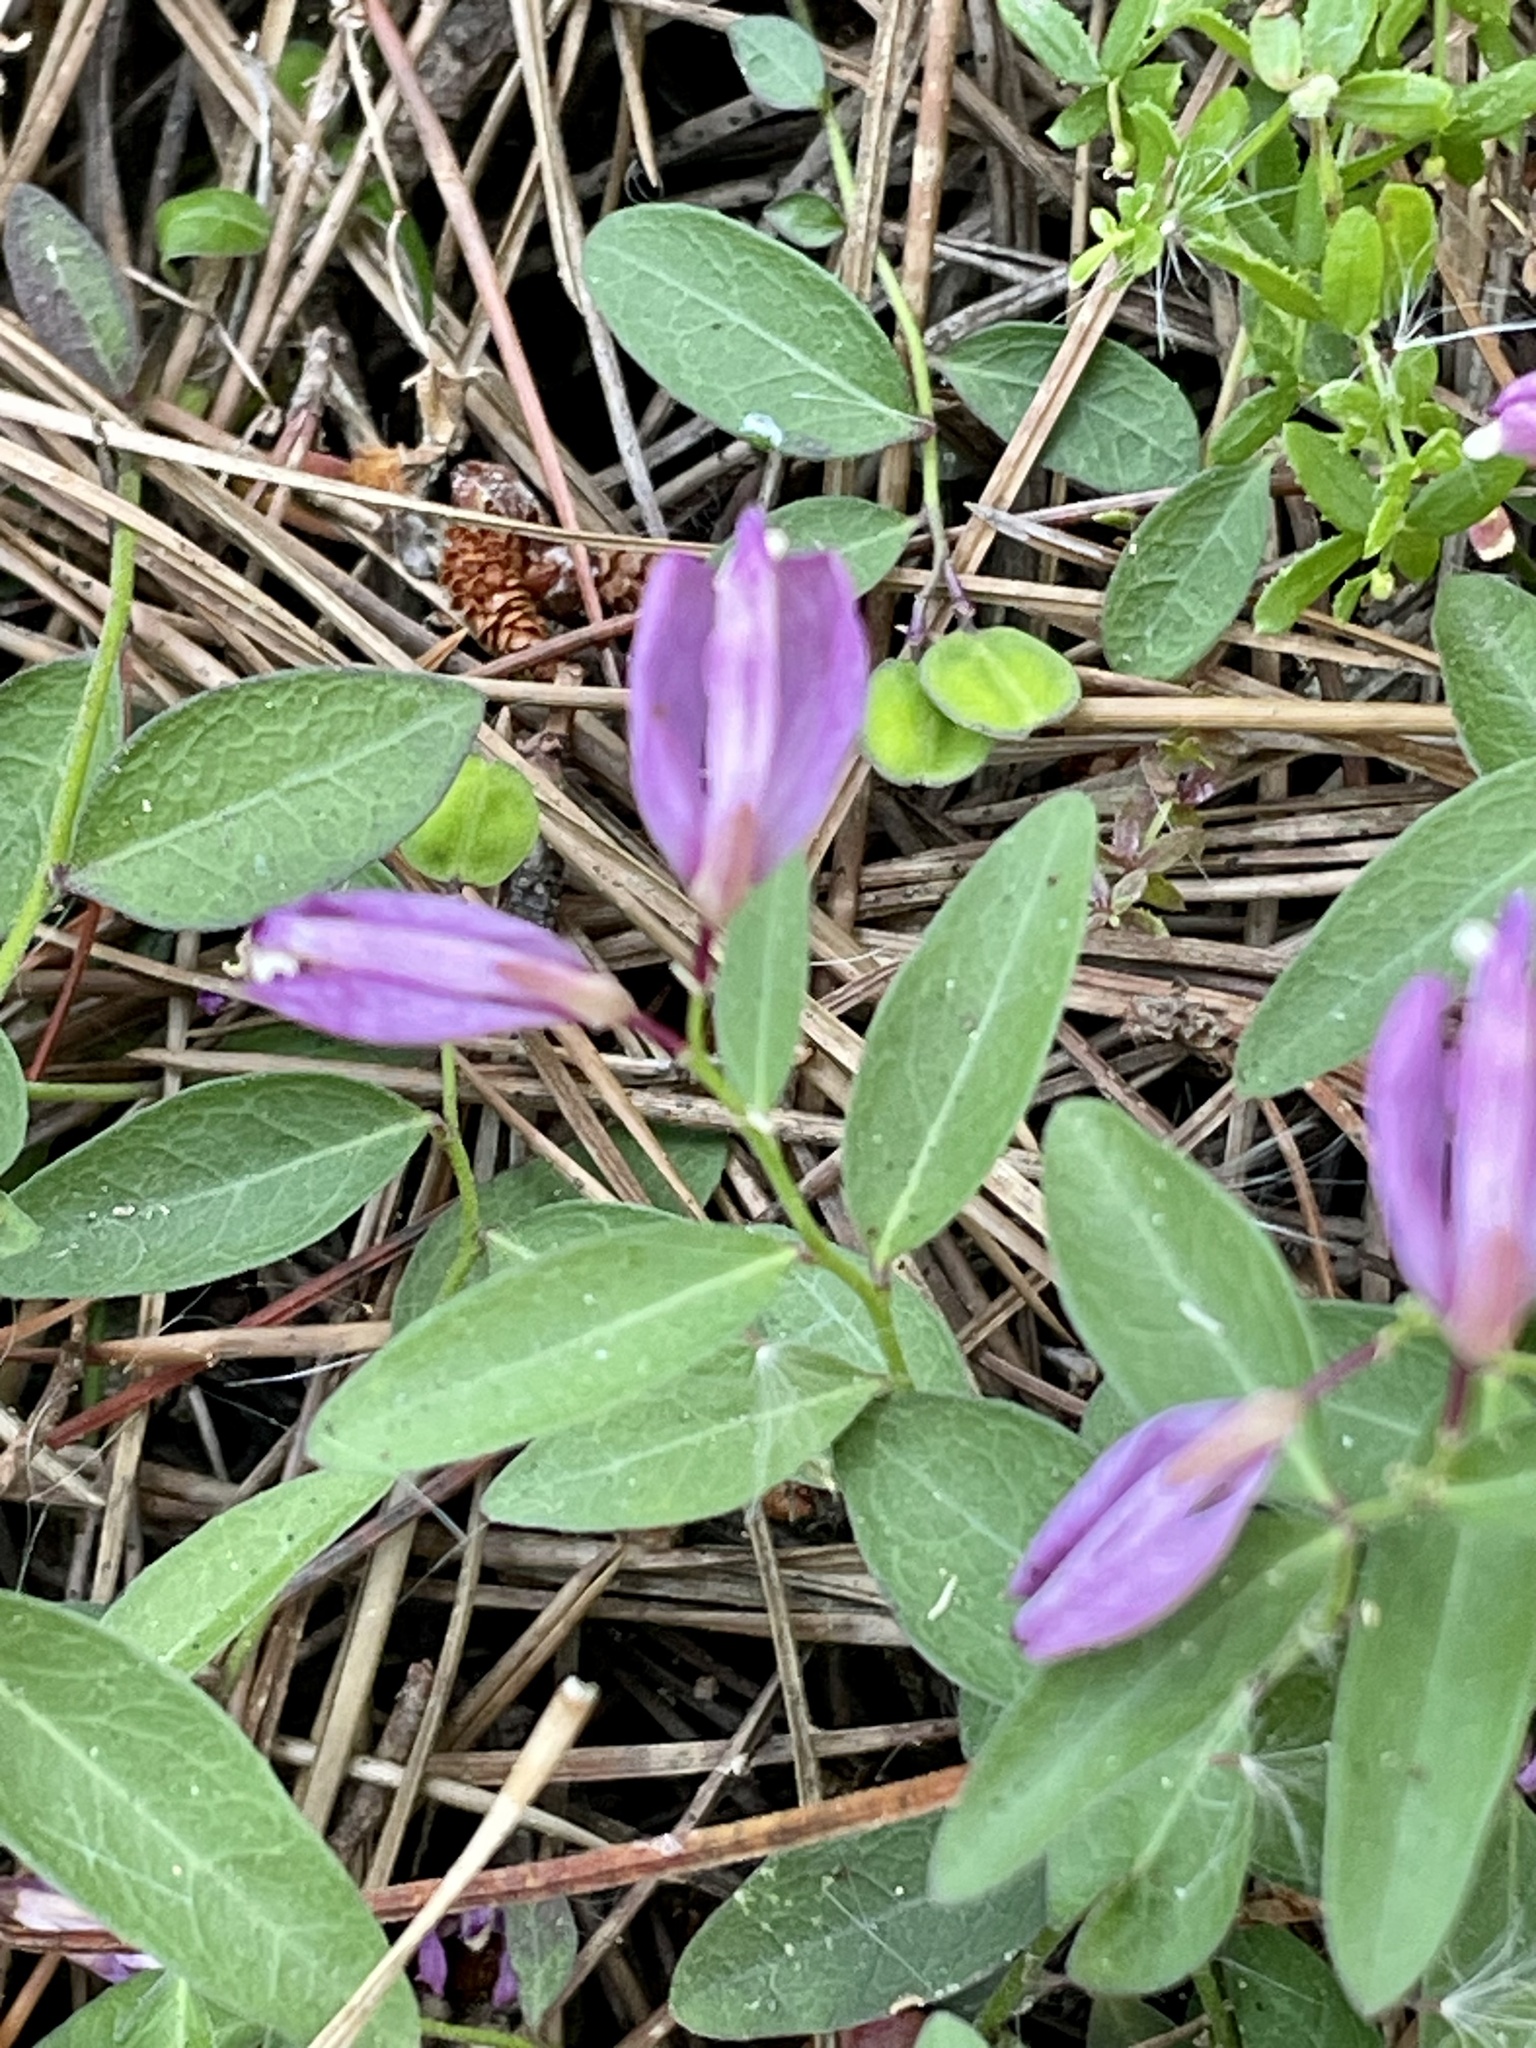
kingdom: Plantae
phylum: Tracheophyta
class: Magnoliopsida
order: Fabales
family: Polygalaceae
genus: Rhinotropis
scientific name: Rhinotropis californica
